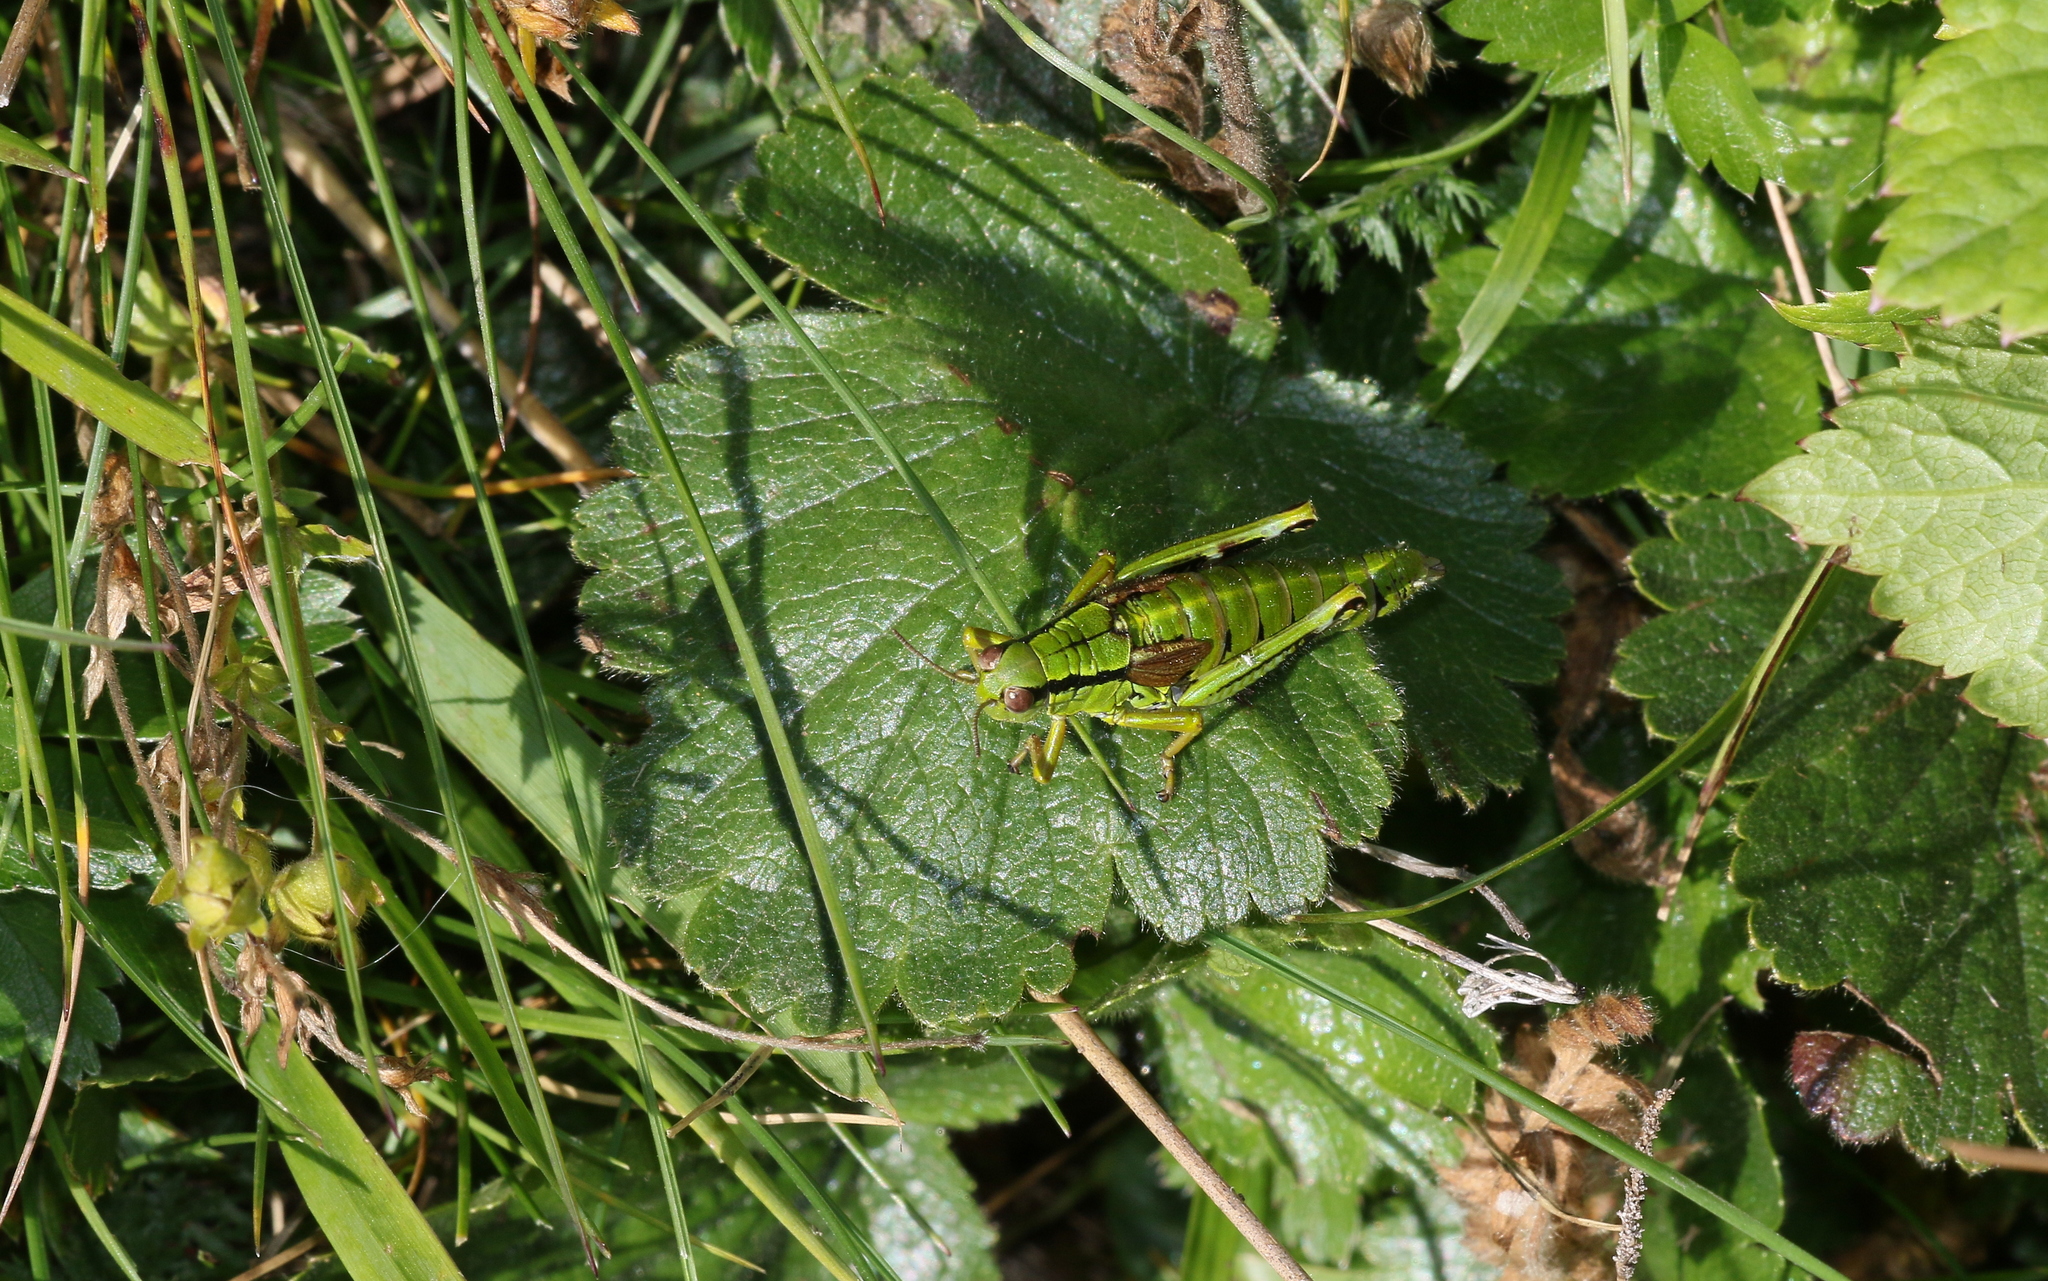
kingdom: Animalia
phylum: Arthropoda
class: Insecta
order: Orthoptera
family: Acrididae
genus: Miramella
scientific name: Miramella alpina
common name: Green mountain grasshopper
